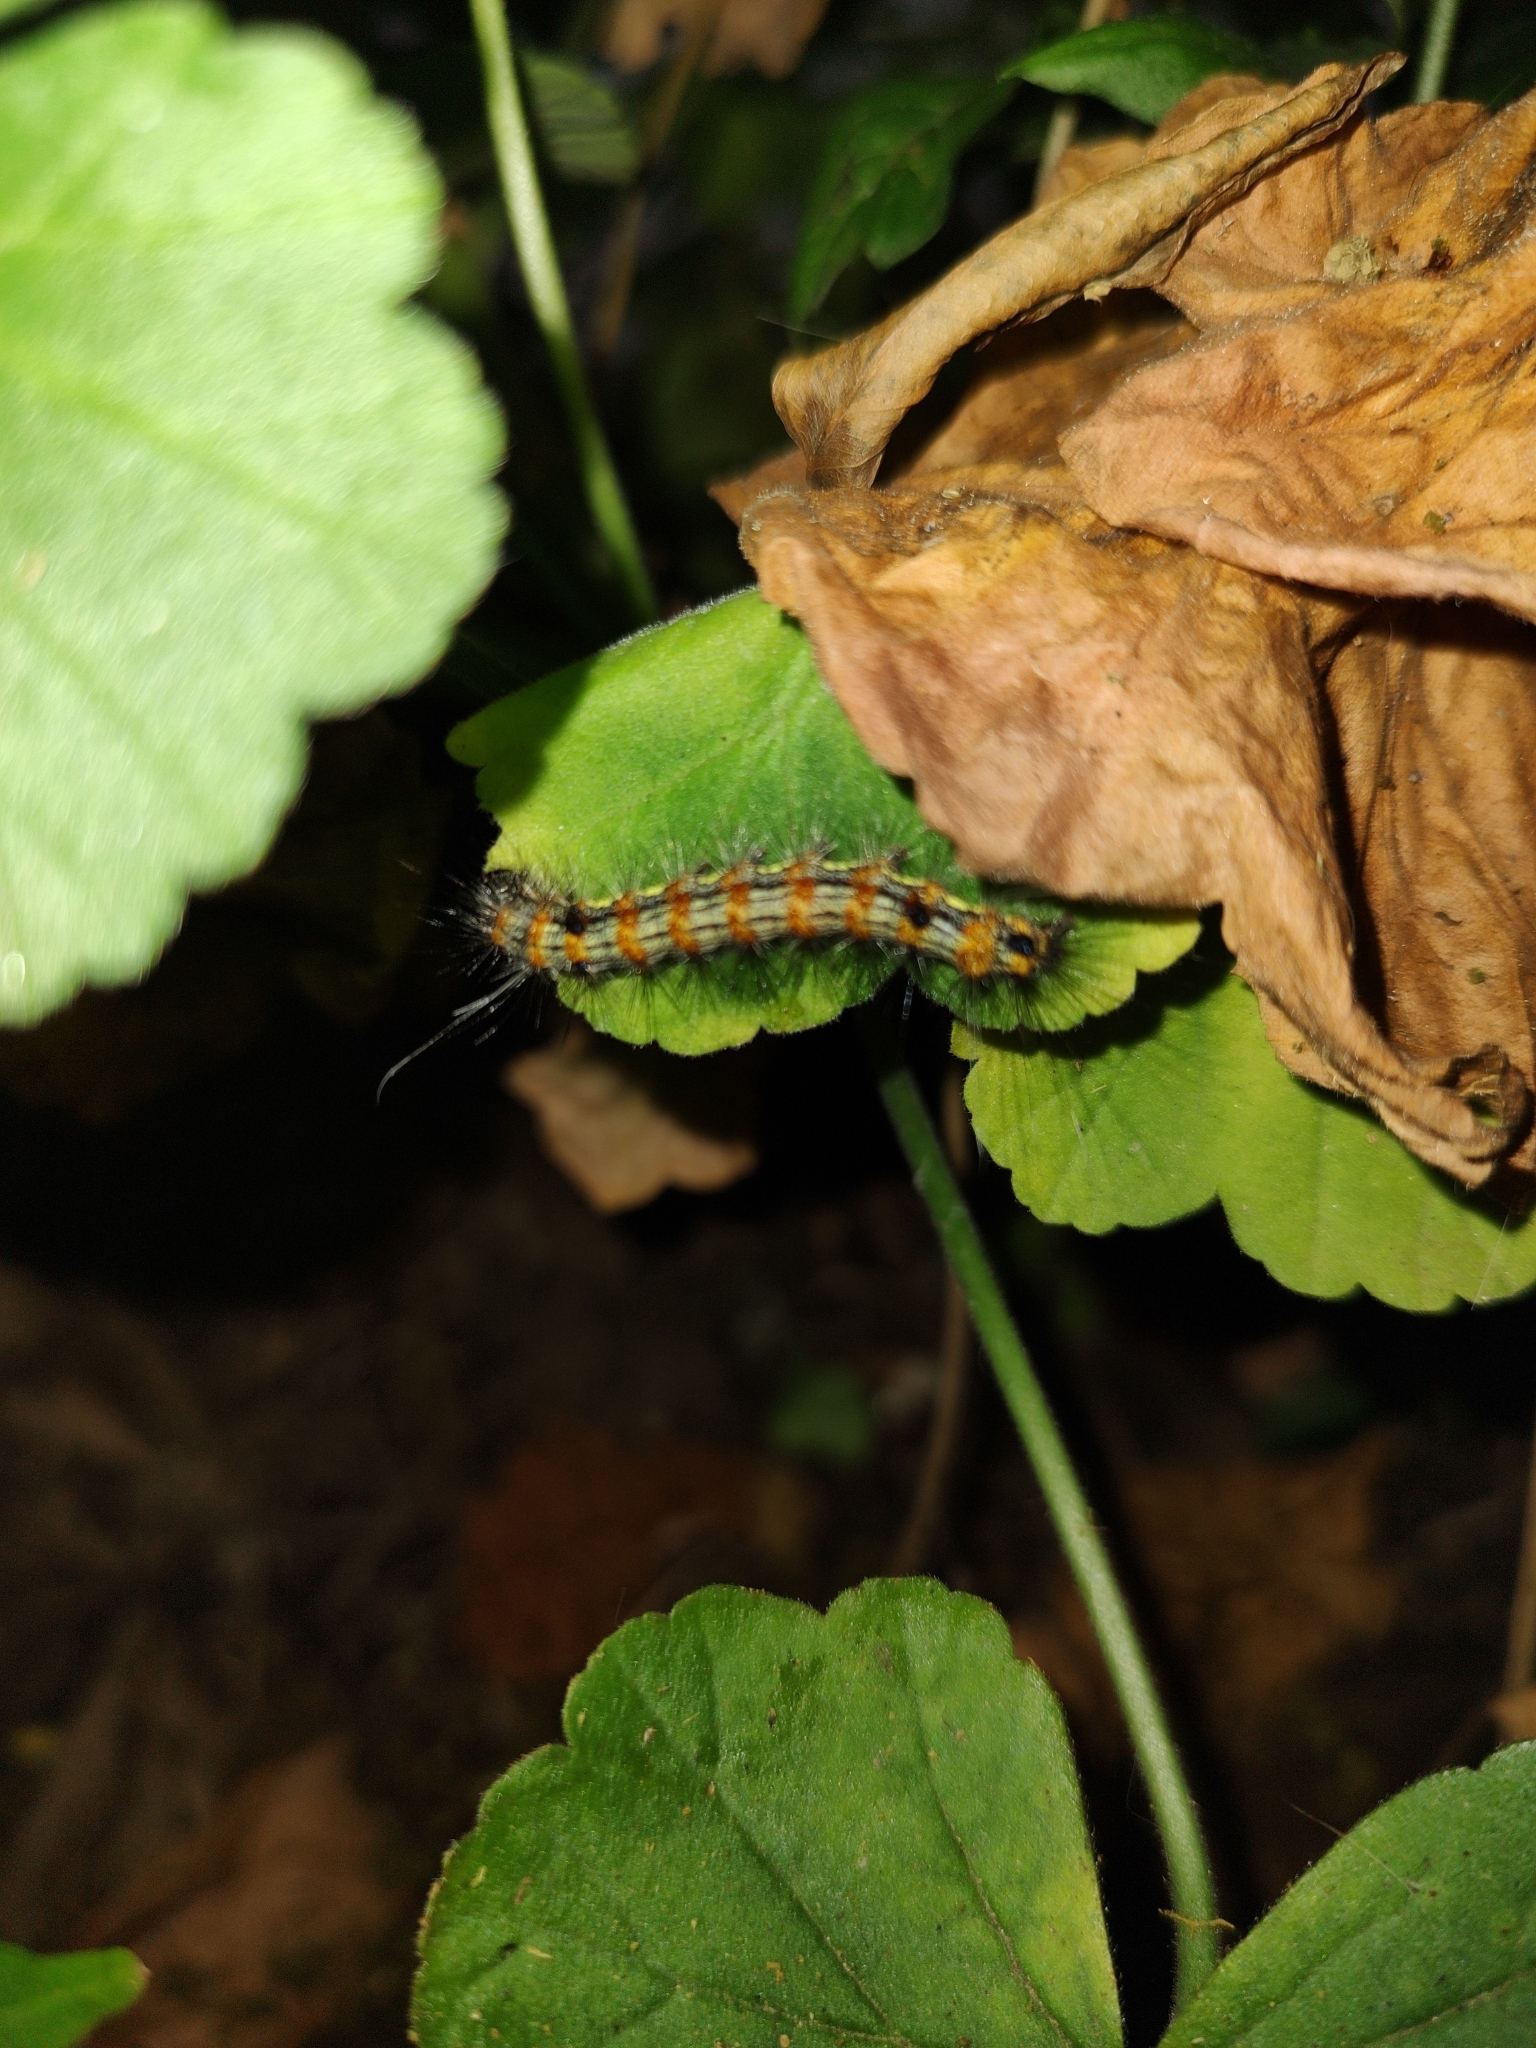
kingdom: Animalia
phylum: Arthropoda
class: Insecta
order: Lepidoptera
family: Erebidae
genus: Dysschema
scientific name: Dysschema sacrifica
